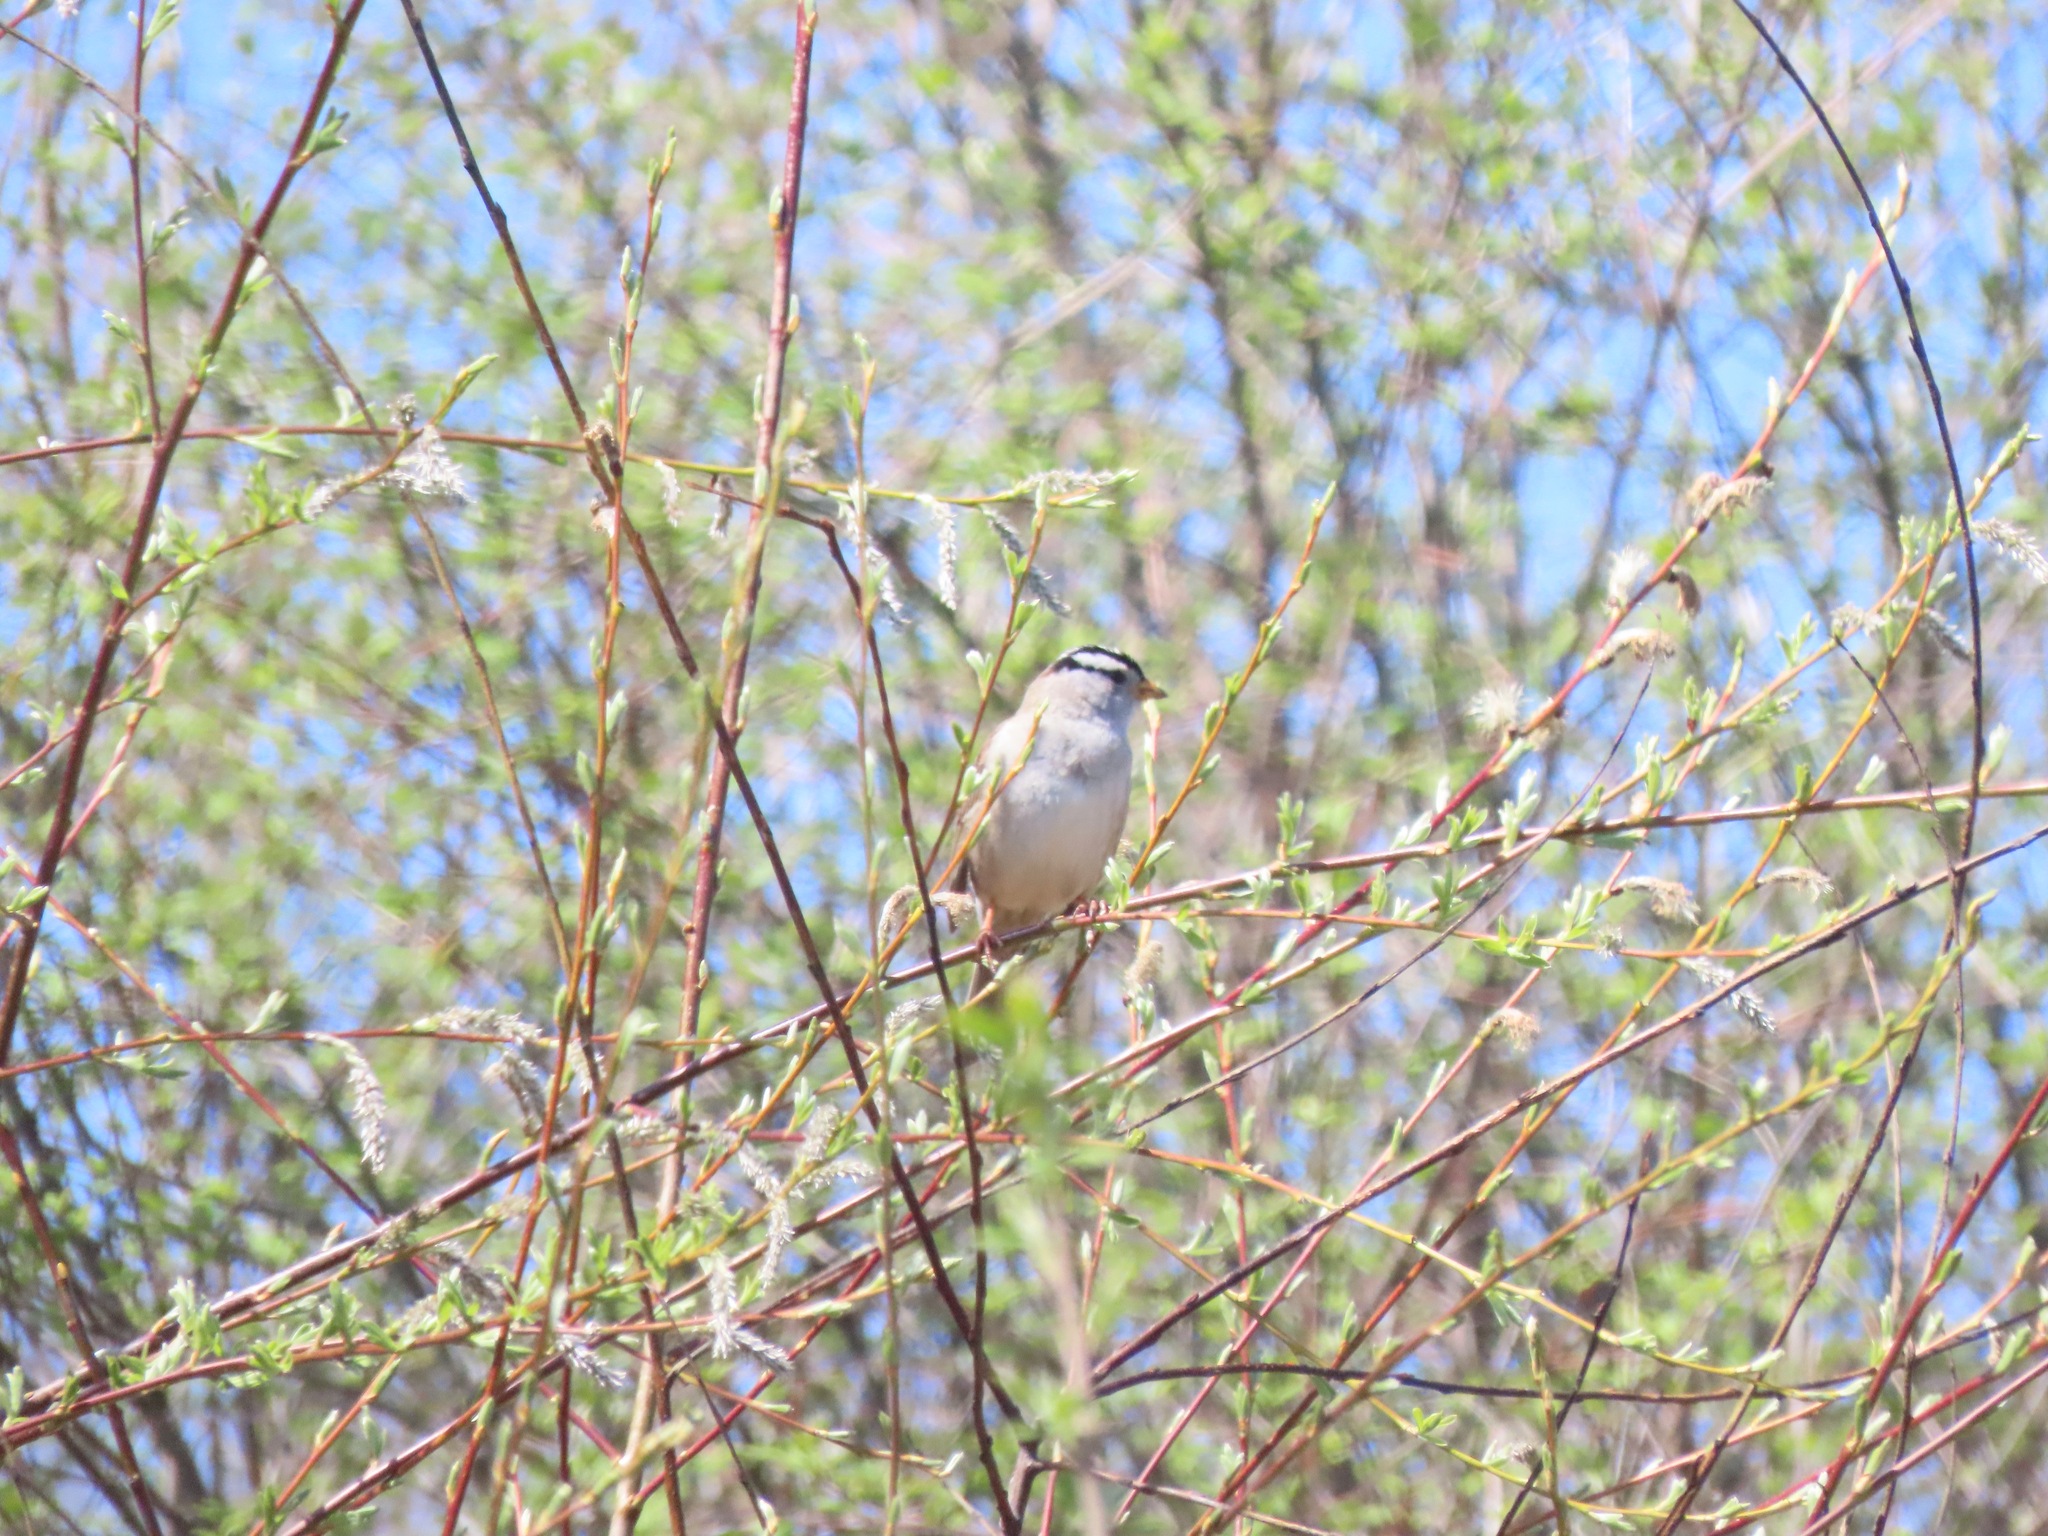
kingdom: Animalia
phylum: Chordata
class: Aves
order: Passeriformes
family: Passerellidae
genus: Zonotrichia
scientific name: Zonotrichia leucophrys
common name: White-crowned sparrow
